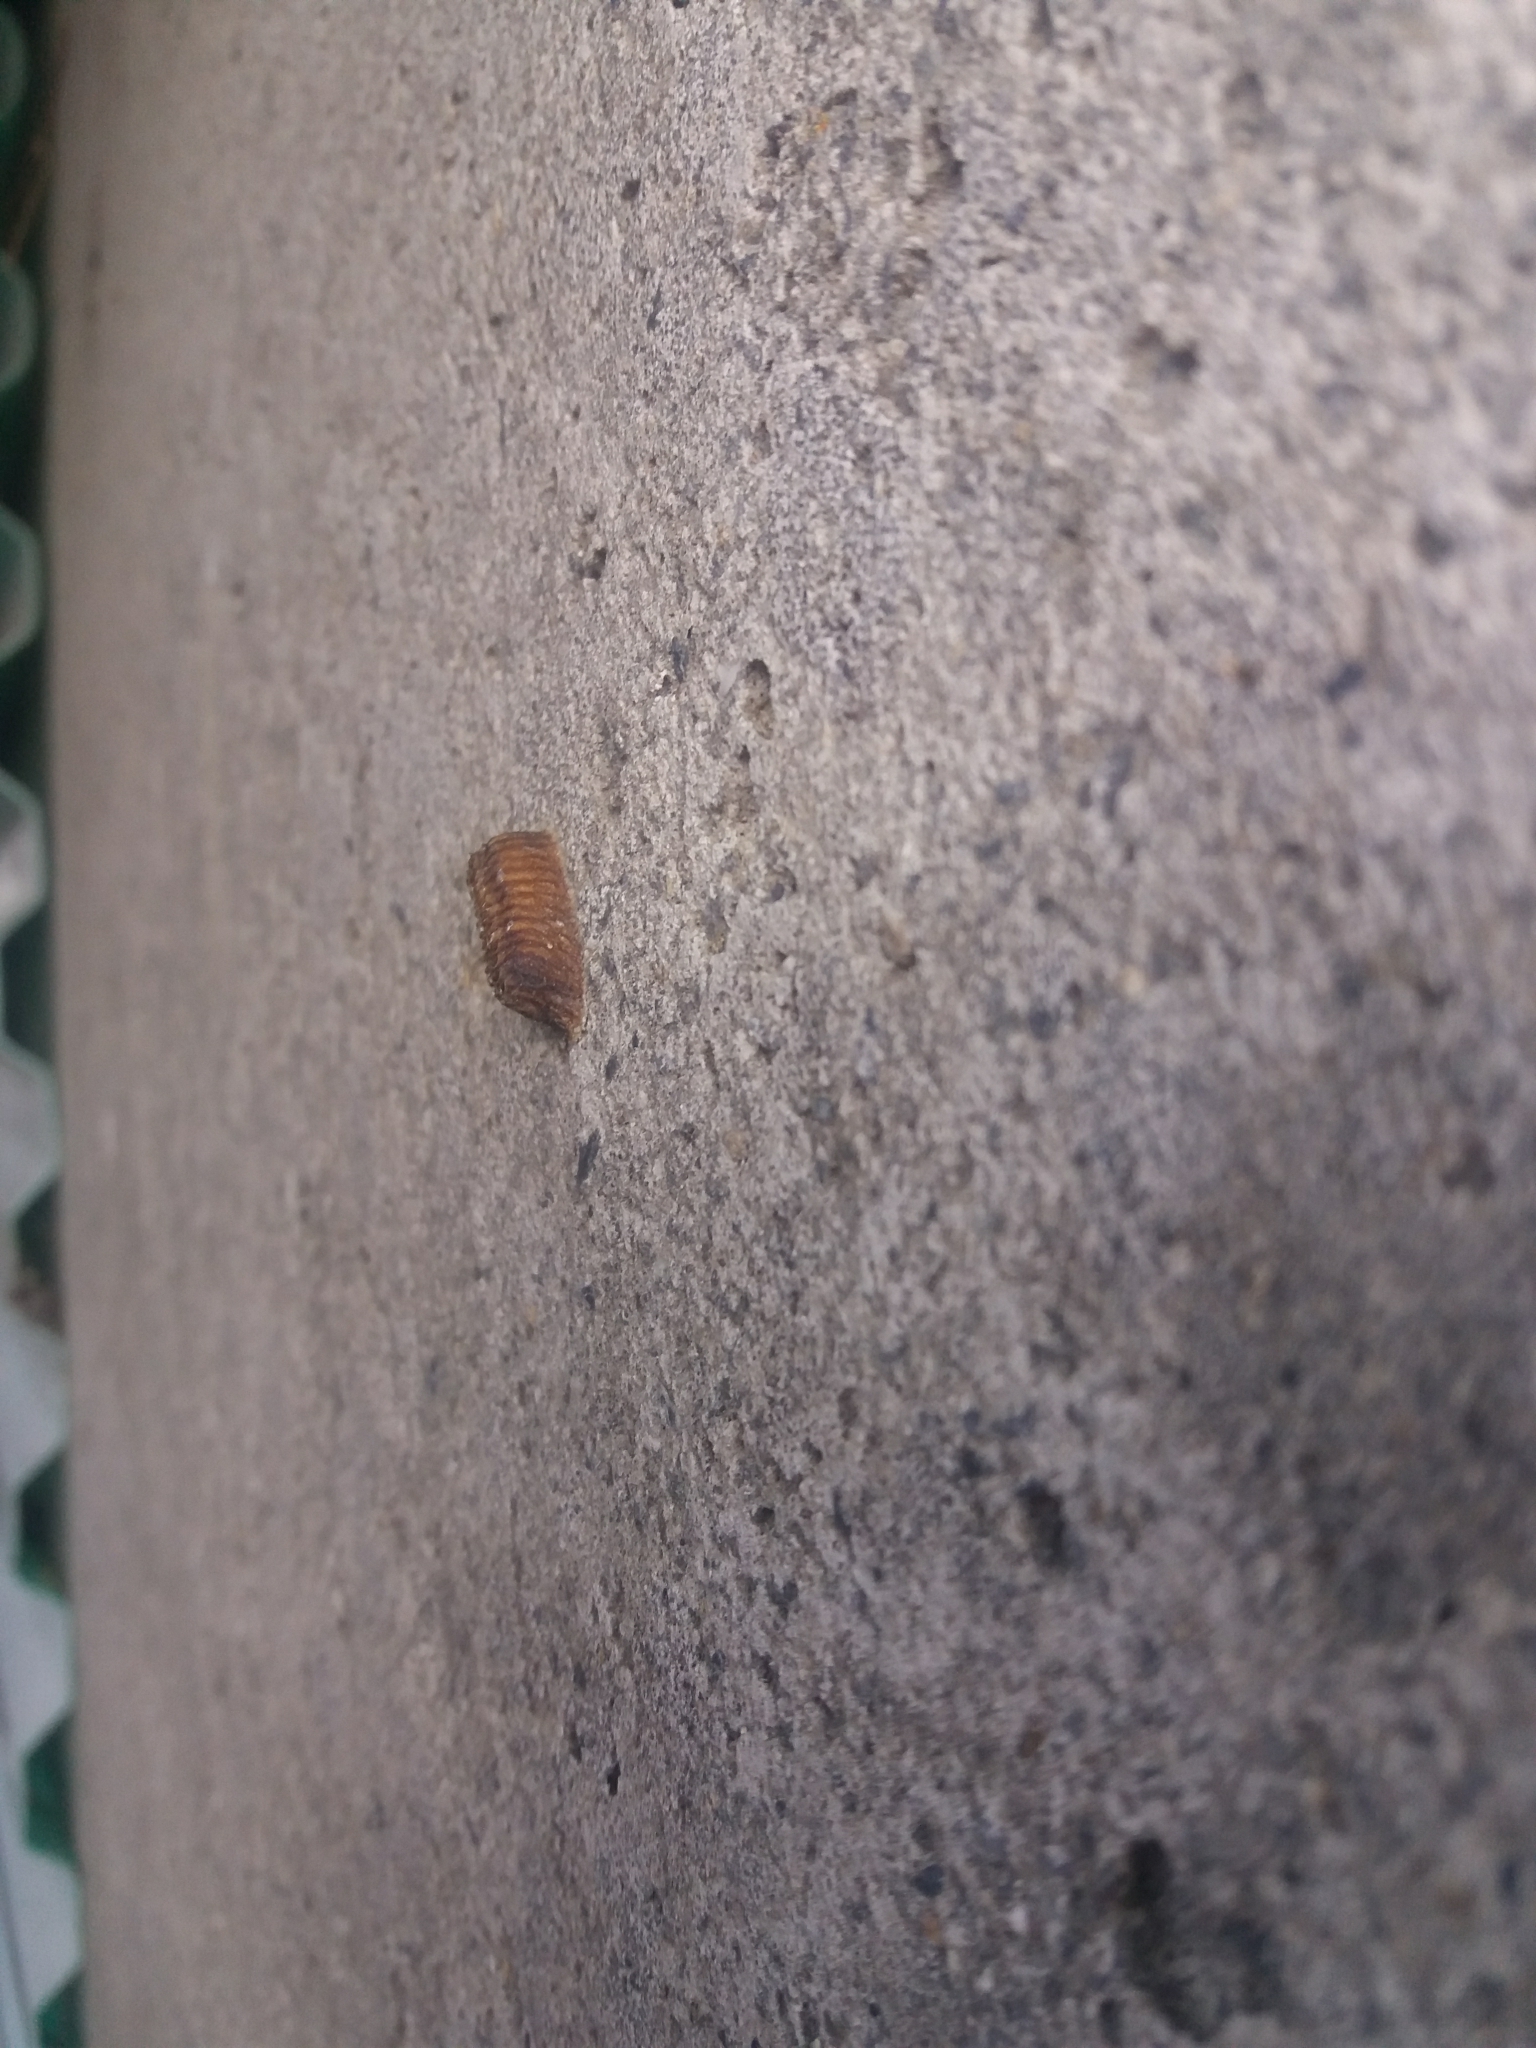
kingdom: Animalia
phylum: Arthropoda
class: Insecta
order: Mantodea
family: Mantidae
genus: Orthodera
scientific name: Orthodera novaezealandiae
